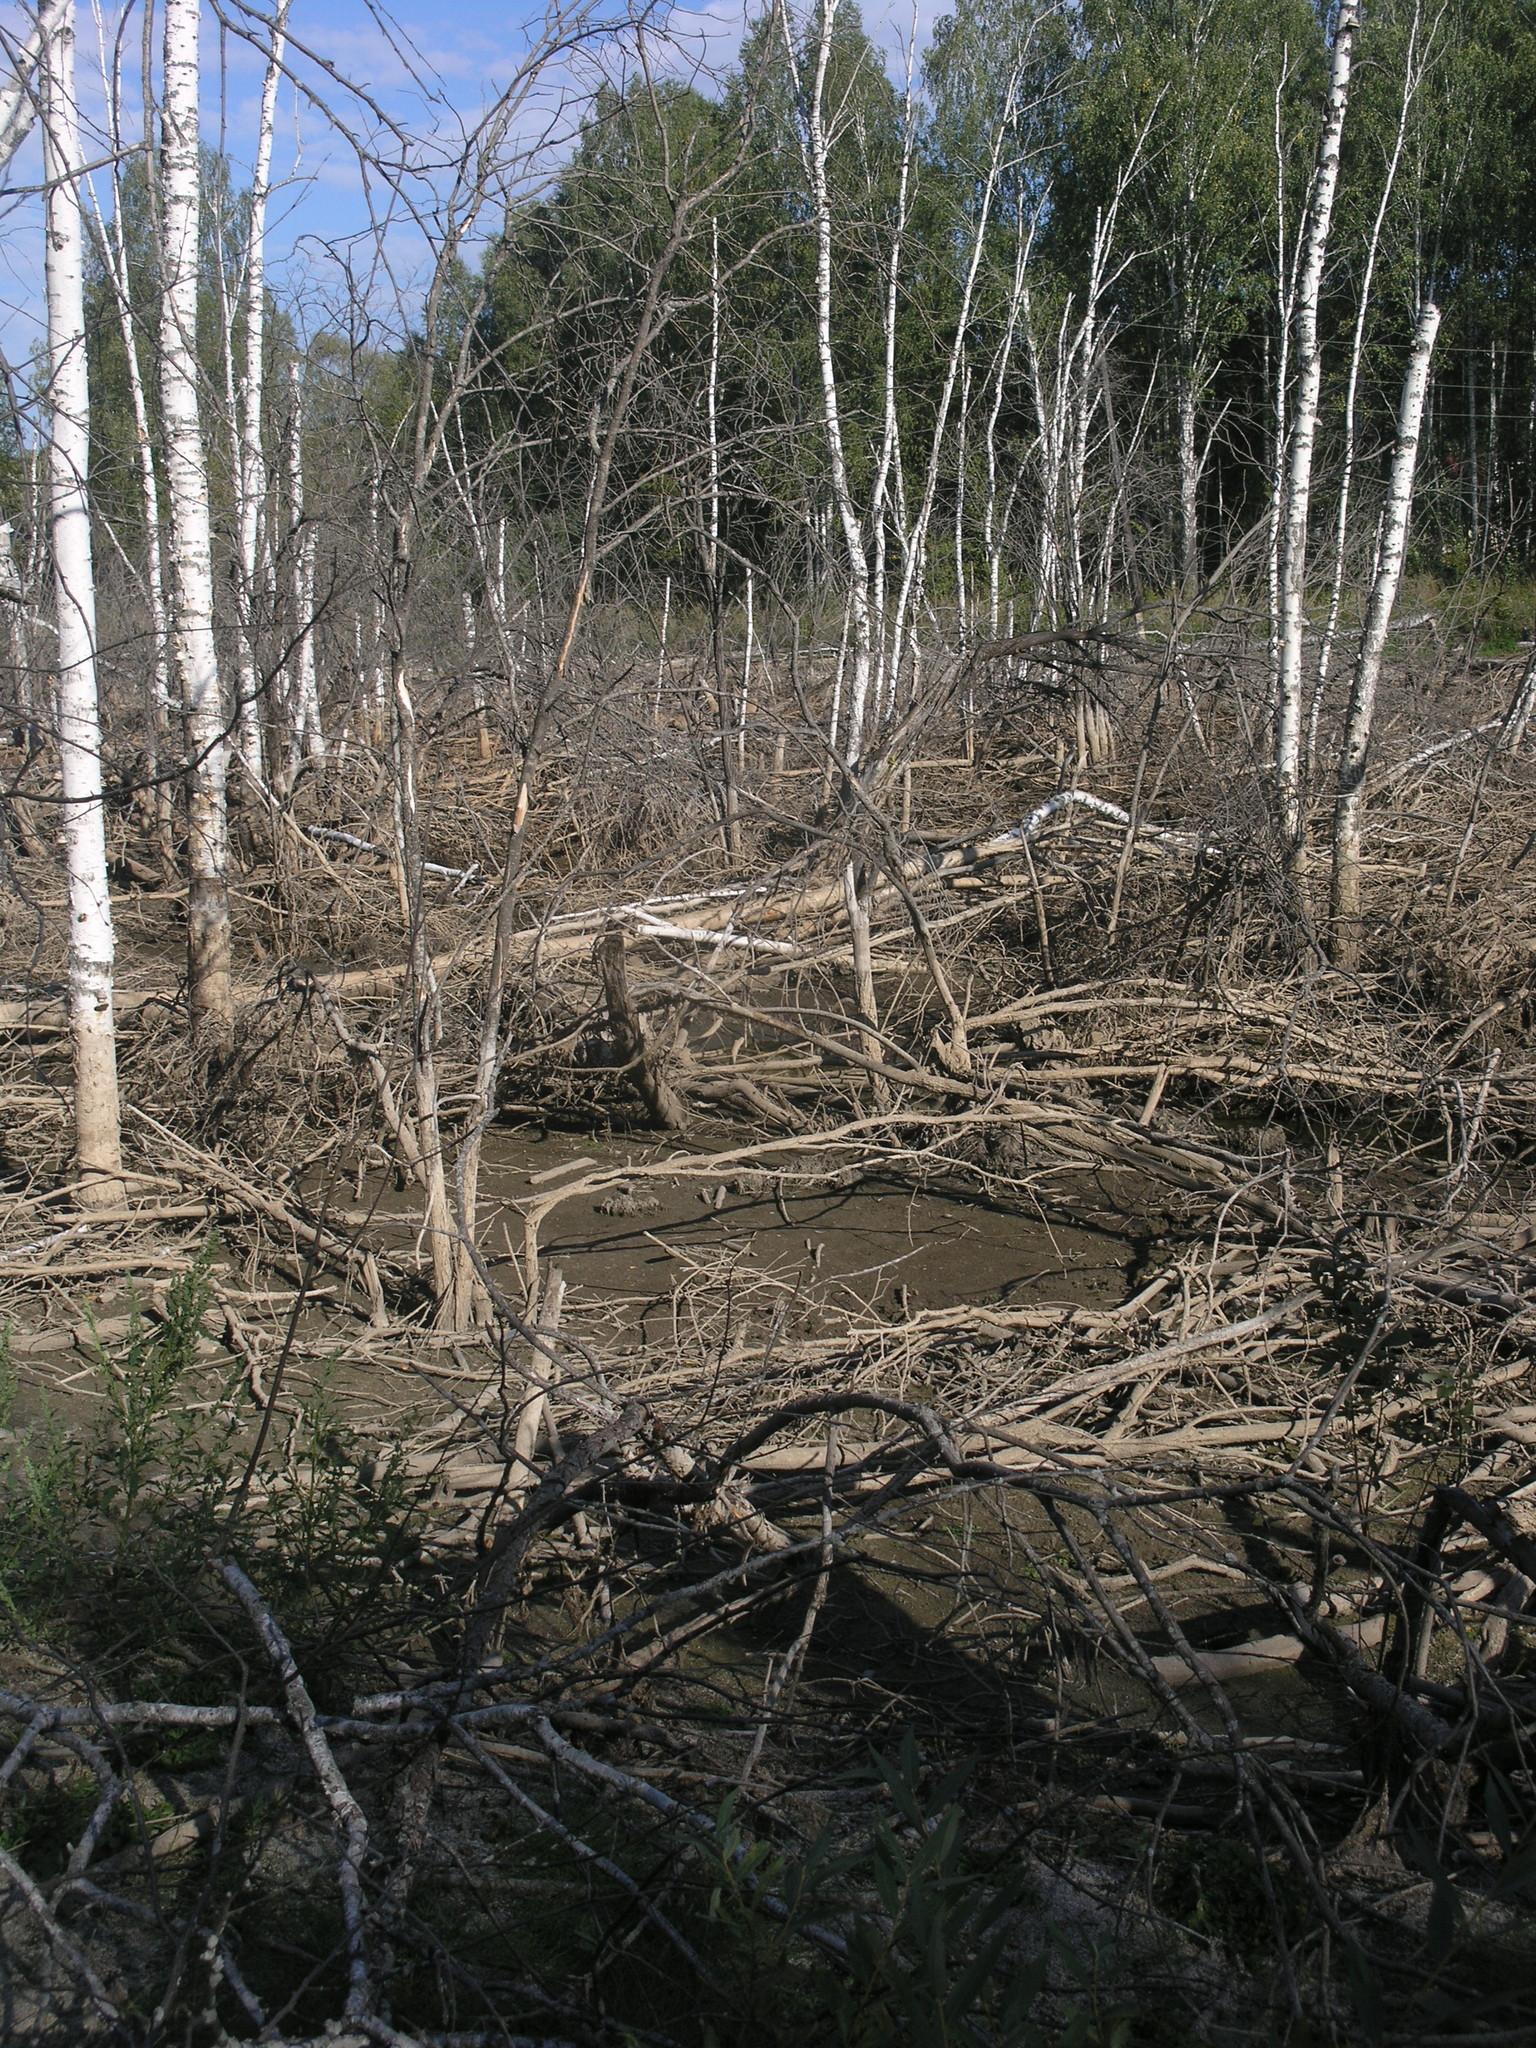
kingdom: Animalia
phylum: Chordata
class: Mammalia
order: Rodentia
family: Castoridae
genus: Castor
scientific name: Castor fiber
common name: Eurasian beaver
